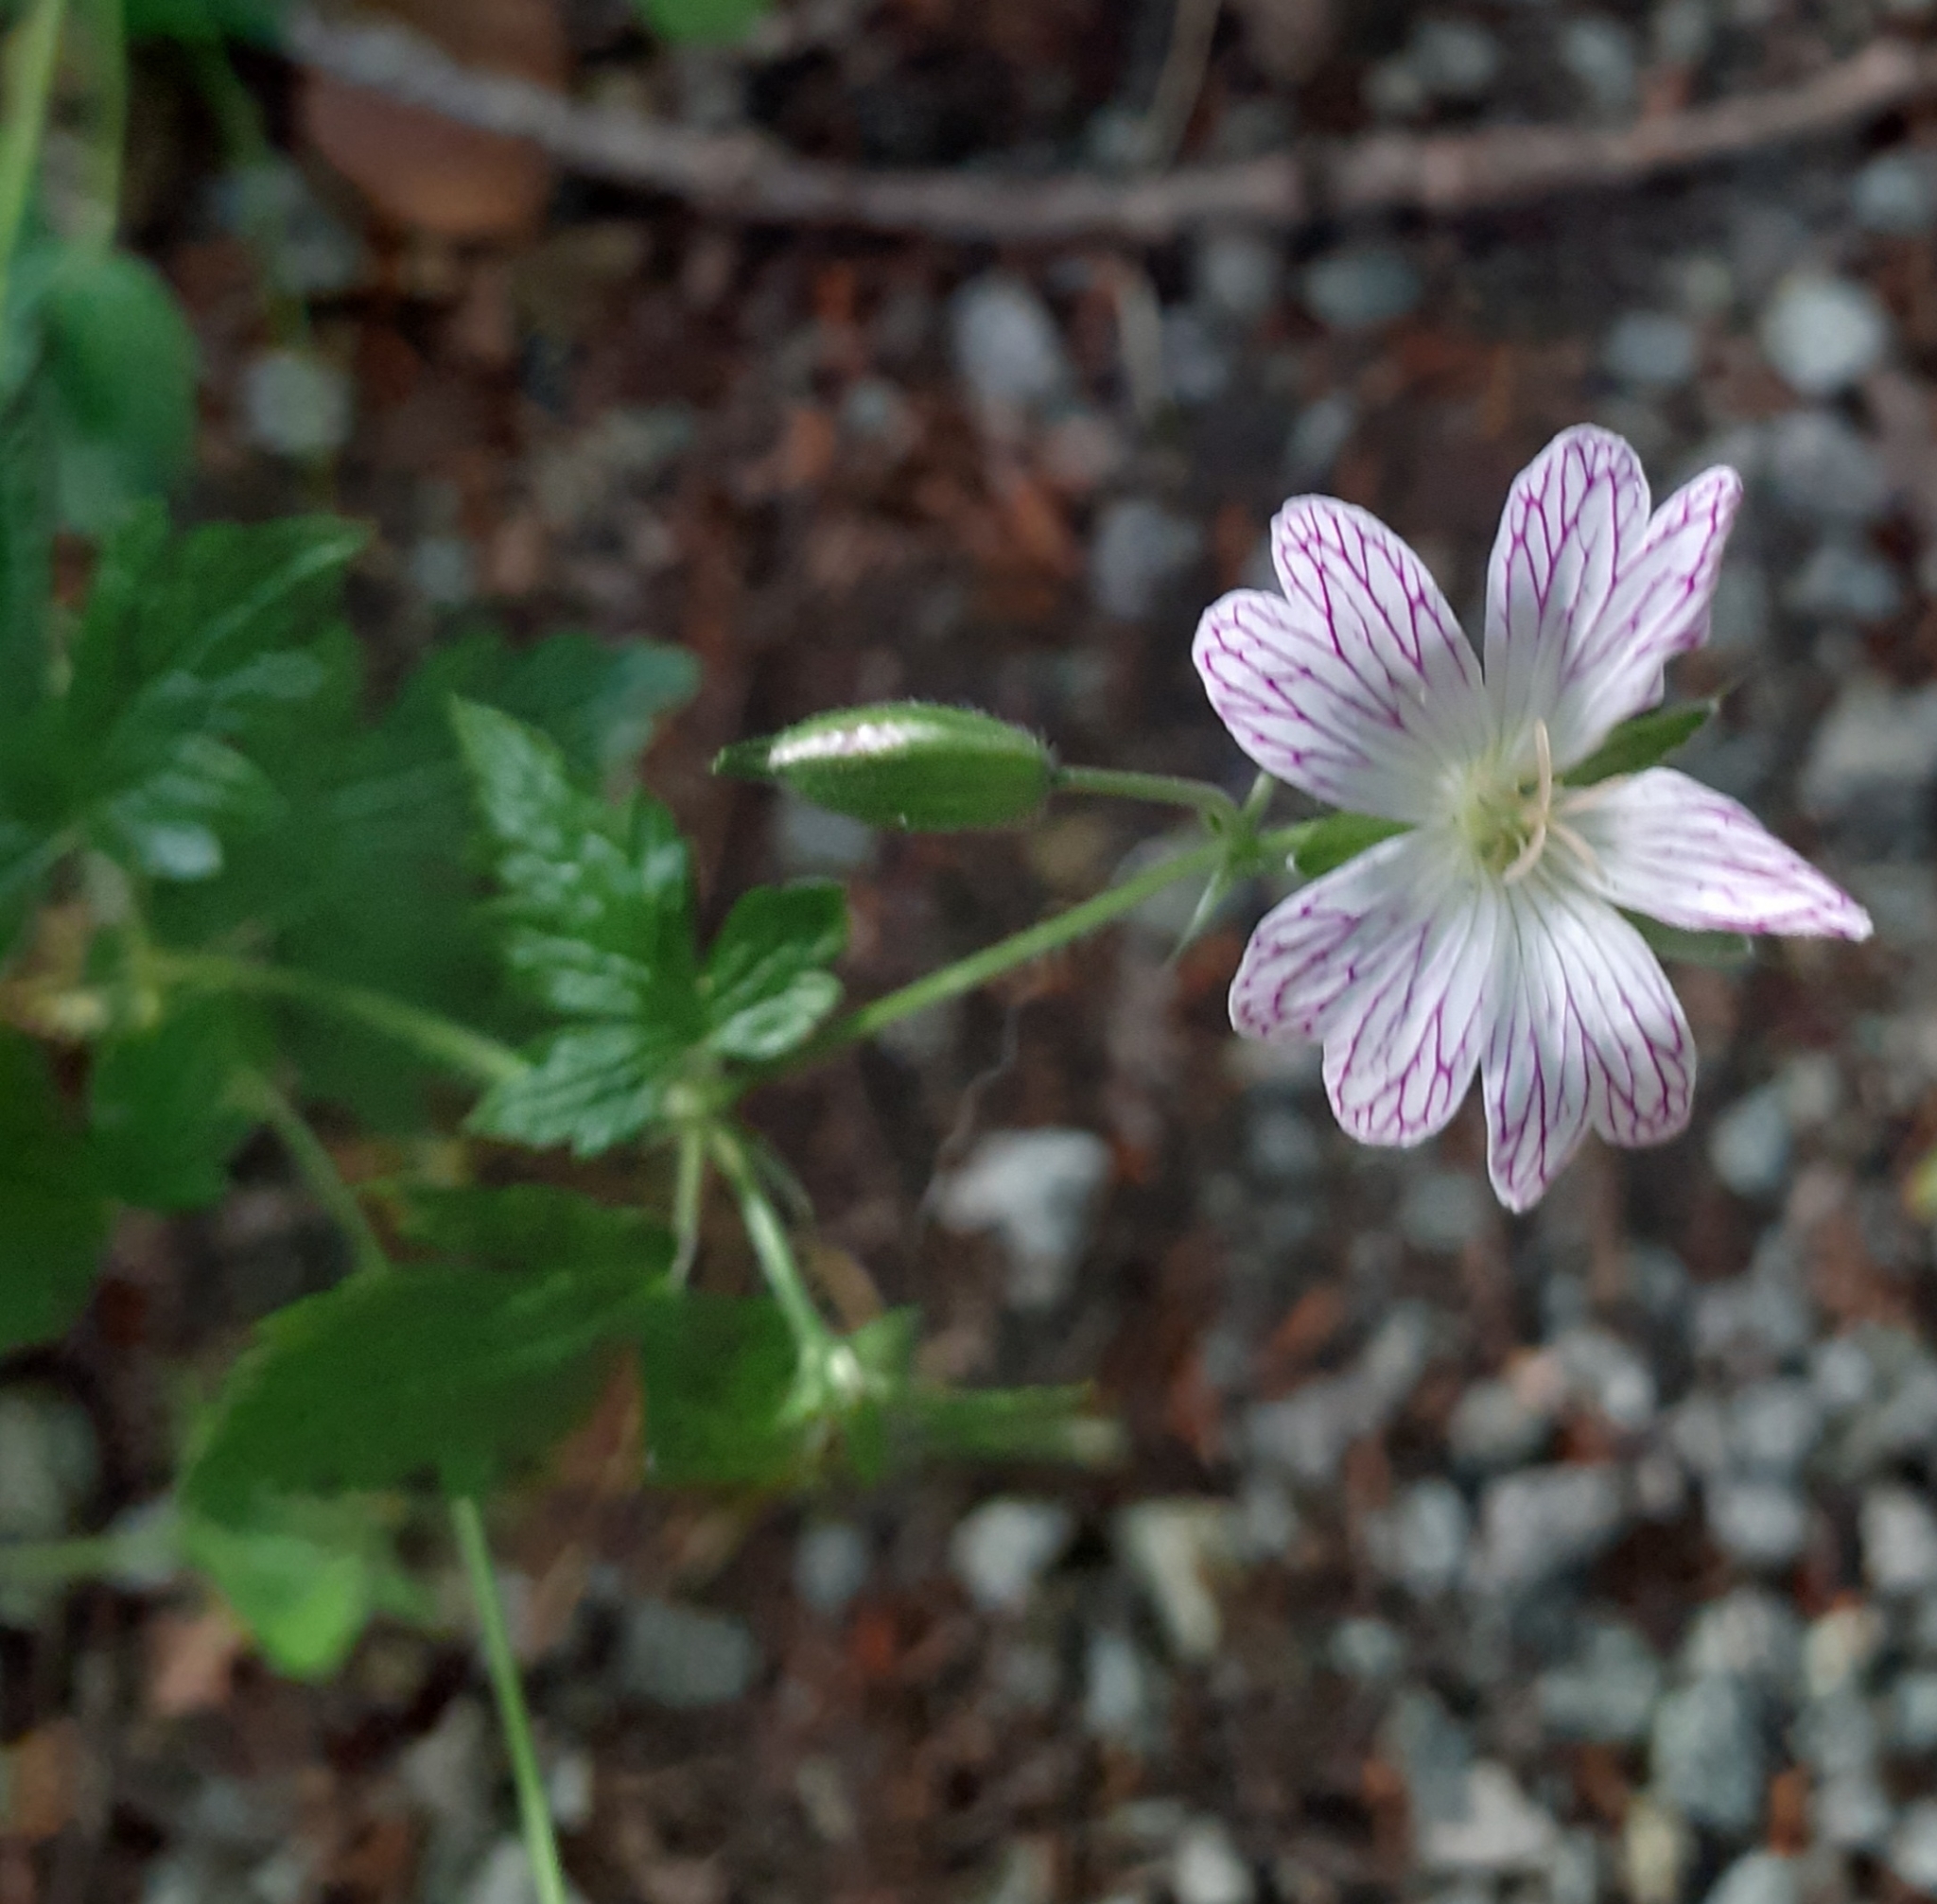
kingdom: Plantae
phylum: Tracheophyta
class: Magnoliopsida
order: Geraniales
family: Geraniaceae
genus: Geranium
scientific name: Geranium versicolor
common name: Pencilled crane's-bill
